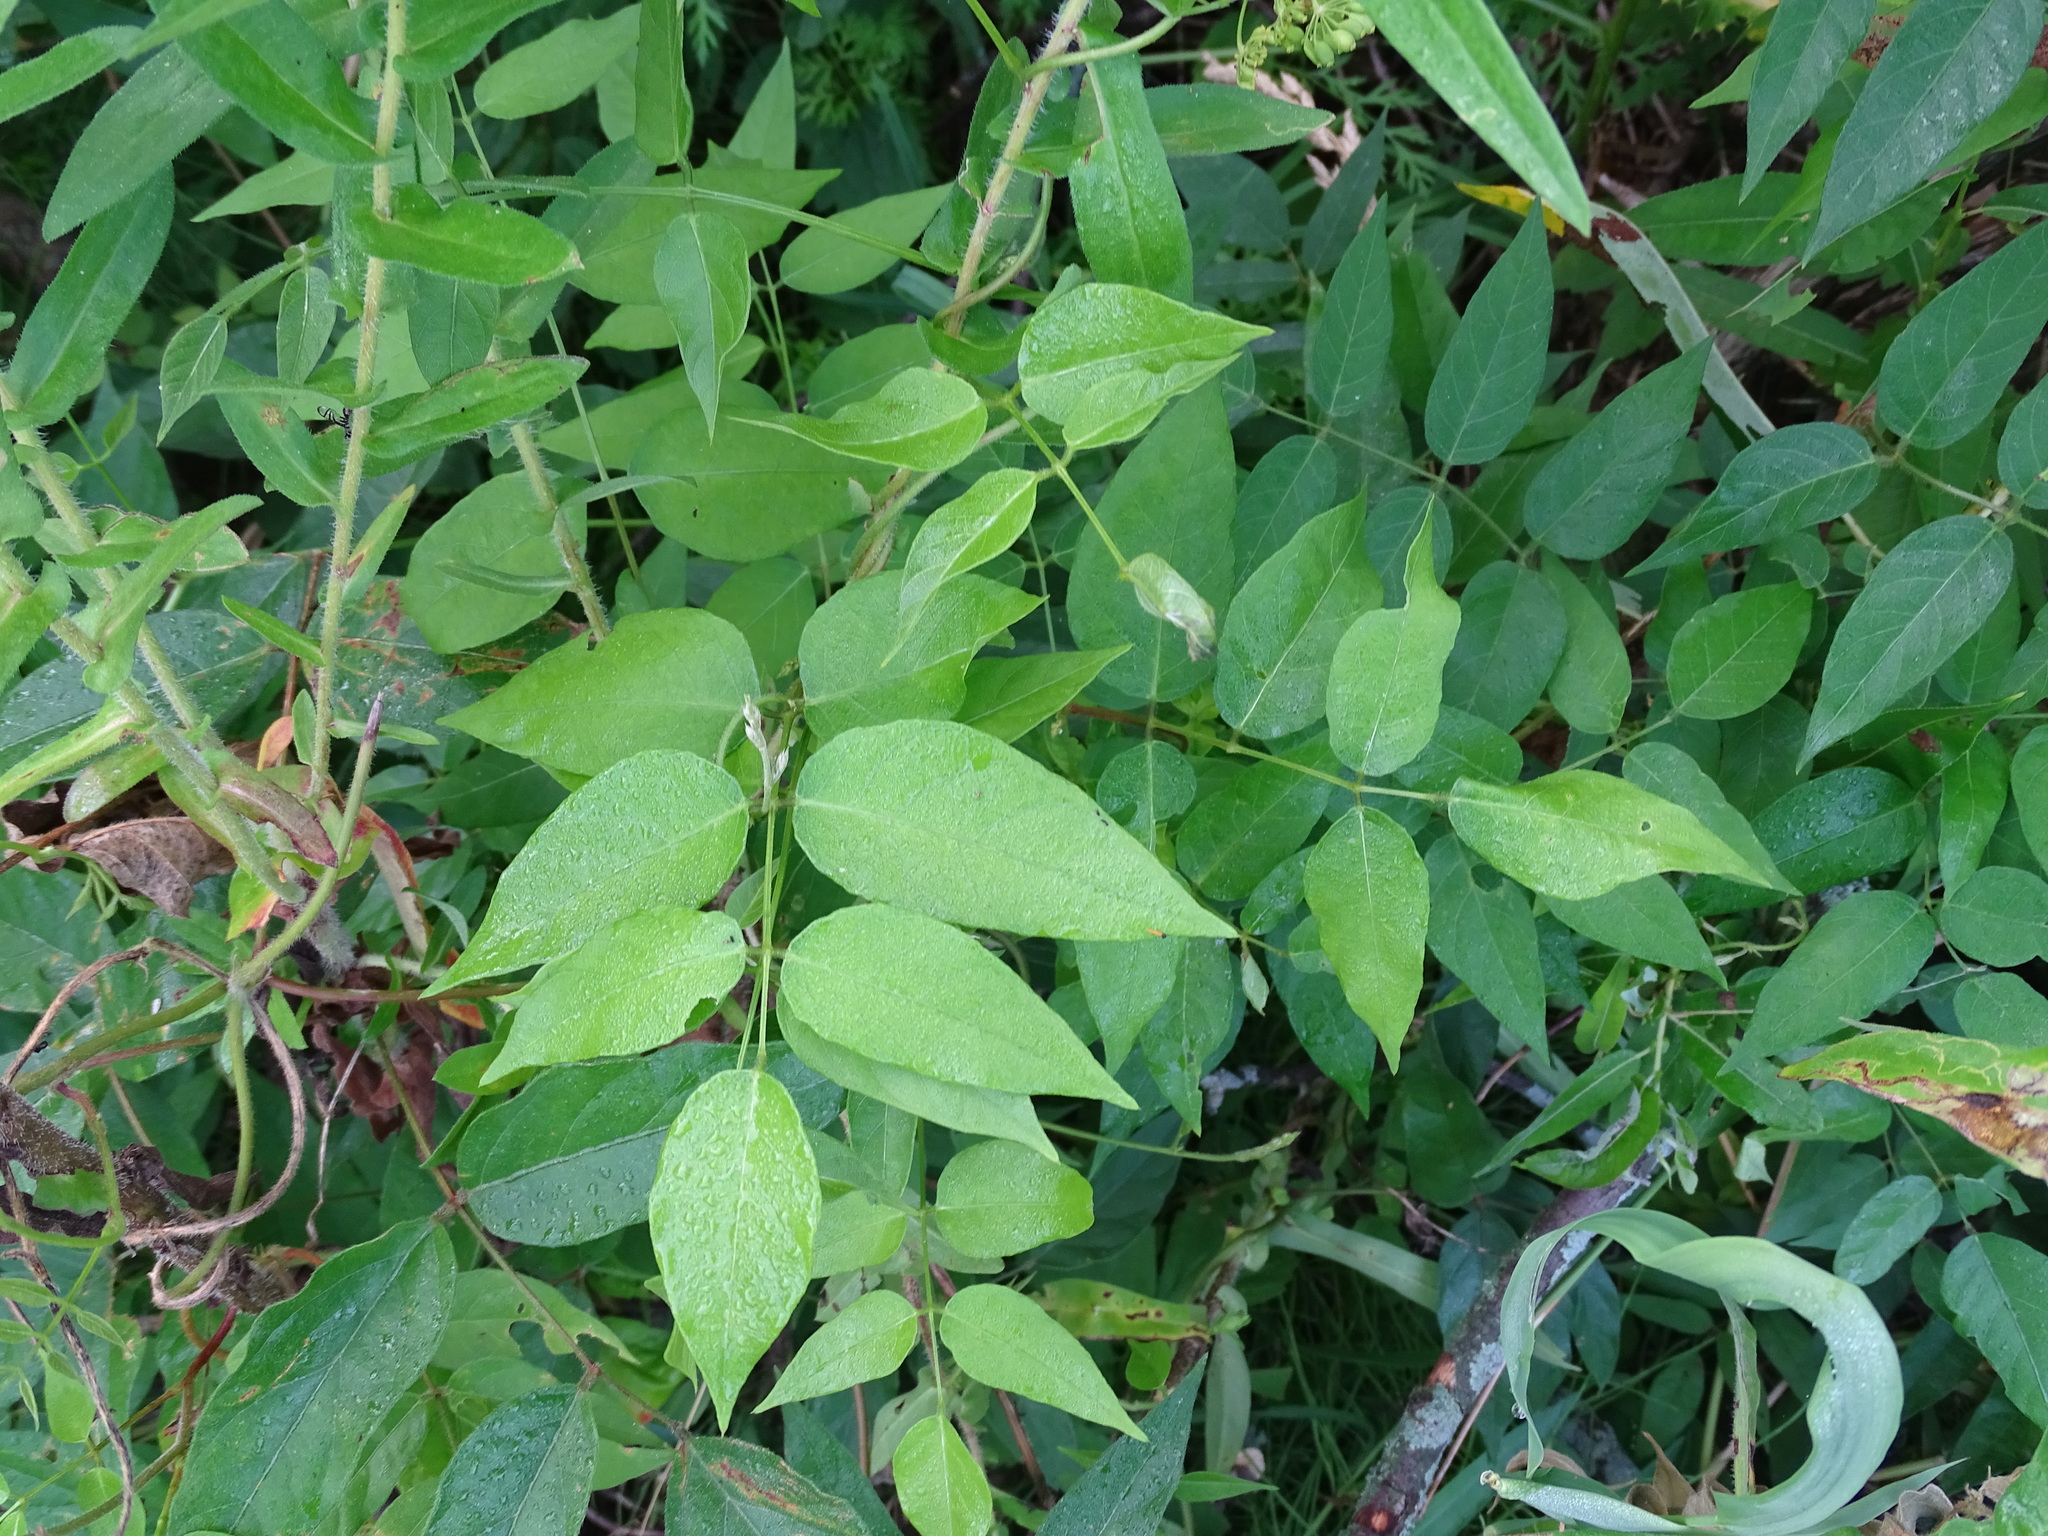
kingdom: Plantae
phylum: Tracheophyta
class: Magnoliopsida
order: Fabales
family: Fabaceae
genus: Apios
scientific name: Apios americana
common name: American potato-bean
